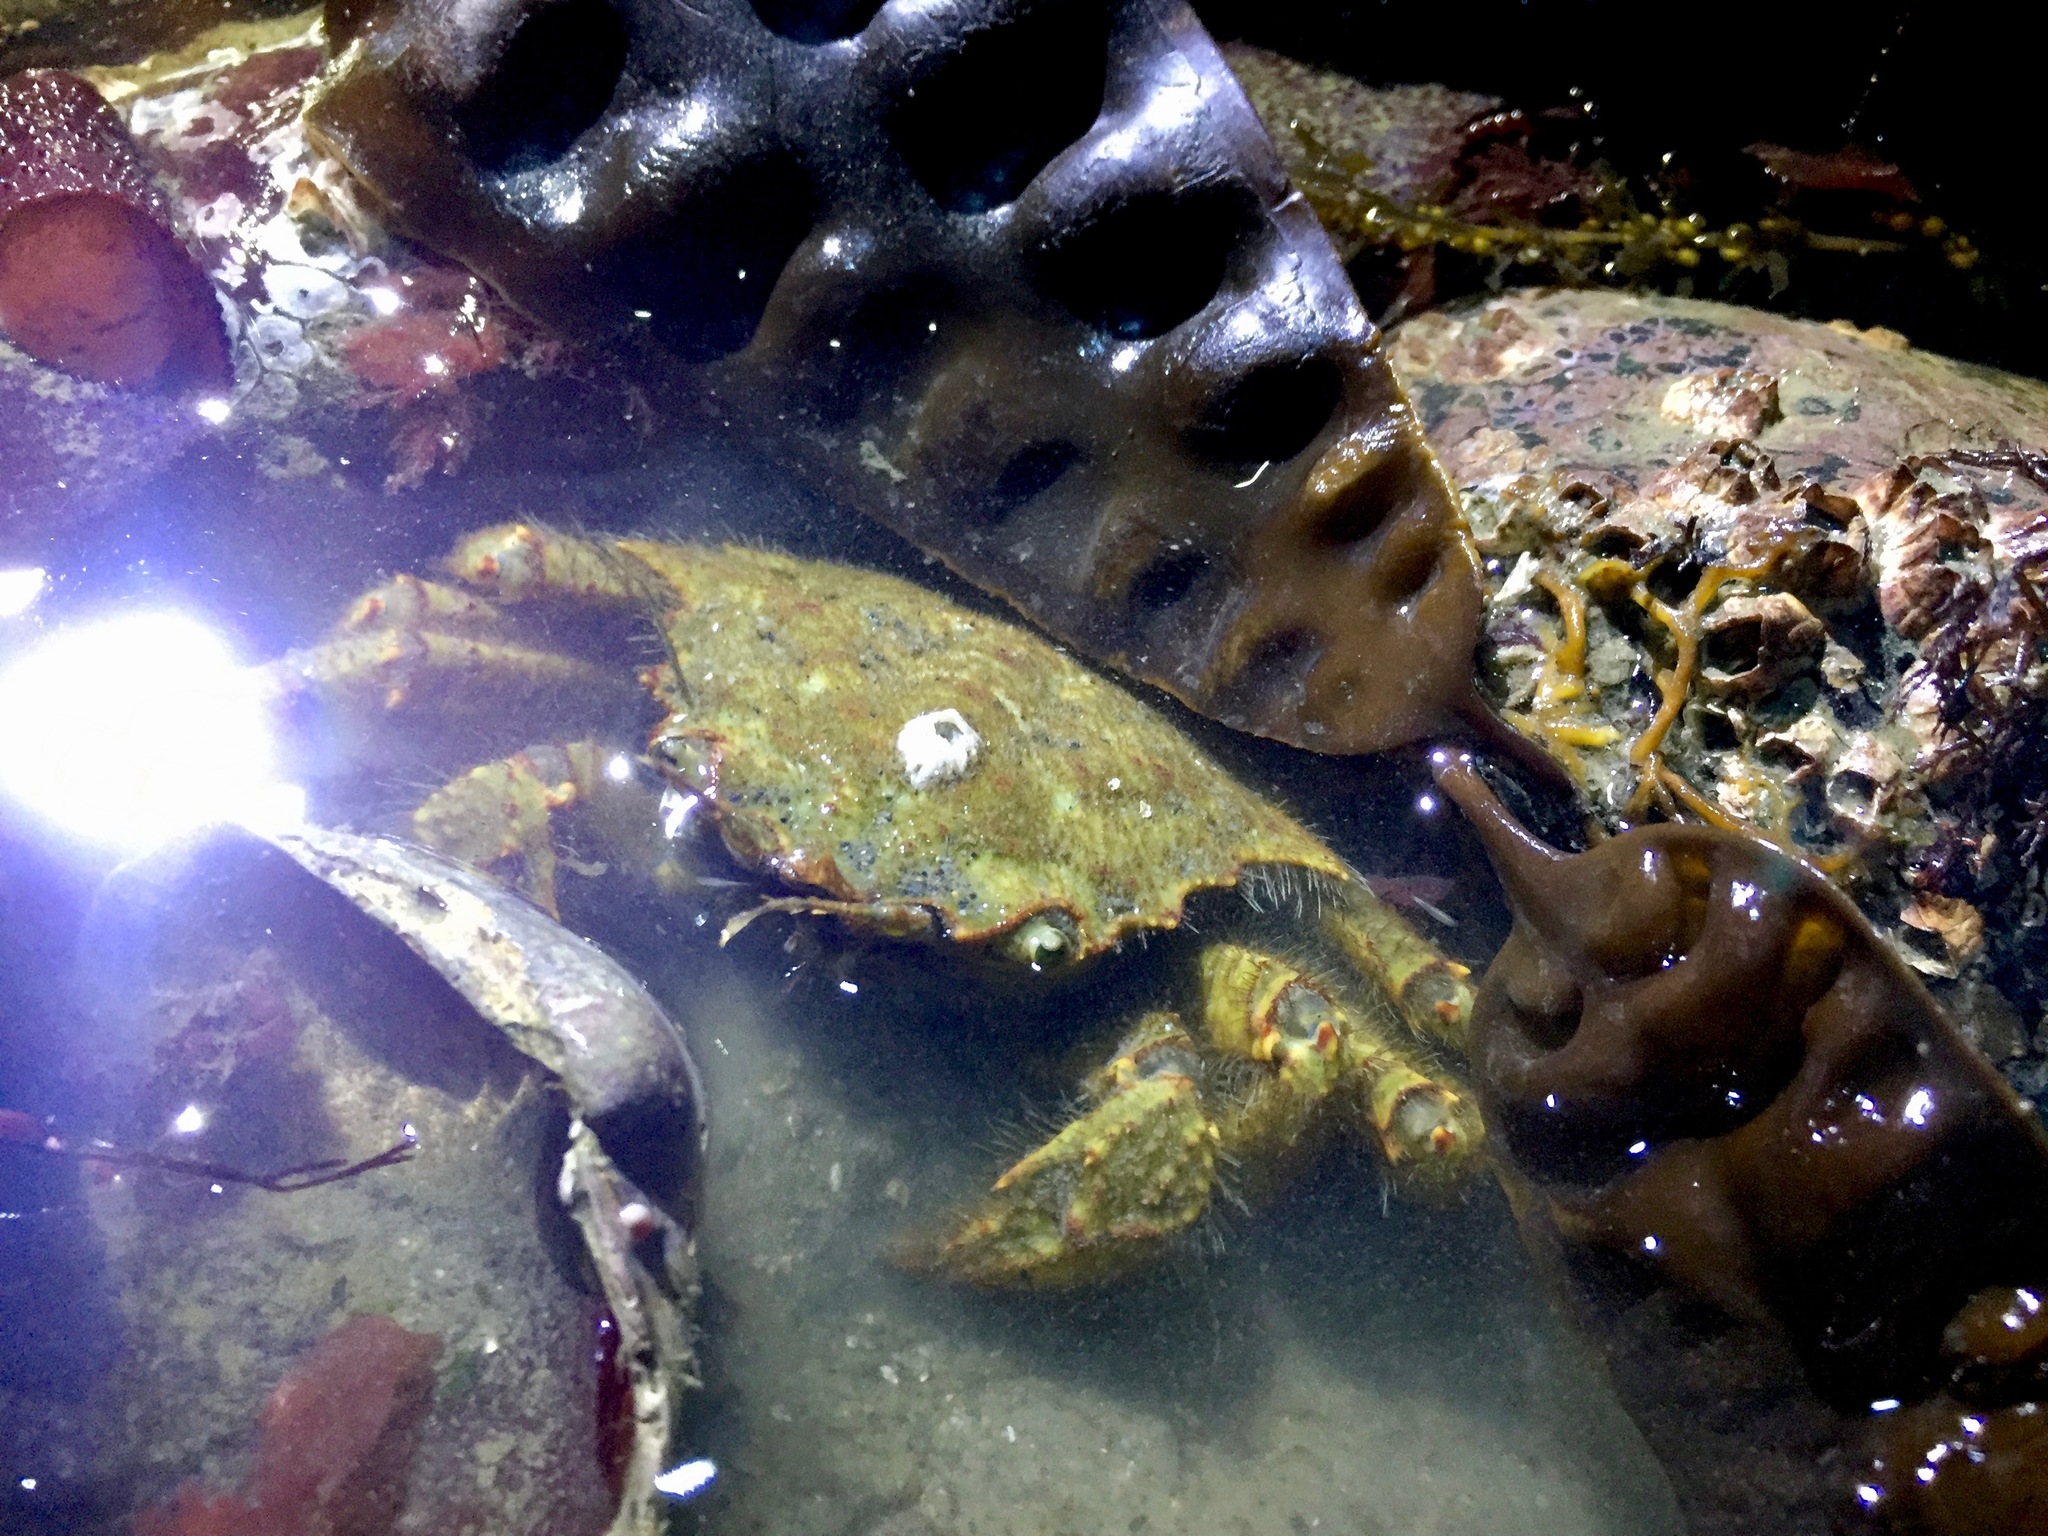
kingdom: Animalia
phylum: Arthropoda
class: Malacostraca
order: Decapoda
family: Cheiragonidae
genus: Telmessus
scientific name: Telmessus cheiragonus
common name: Helmet crab
